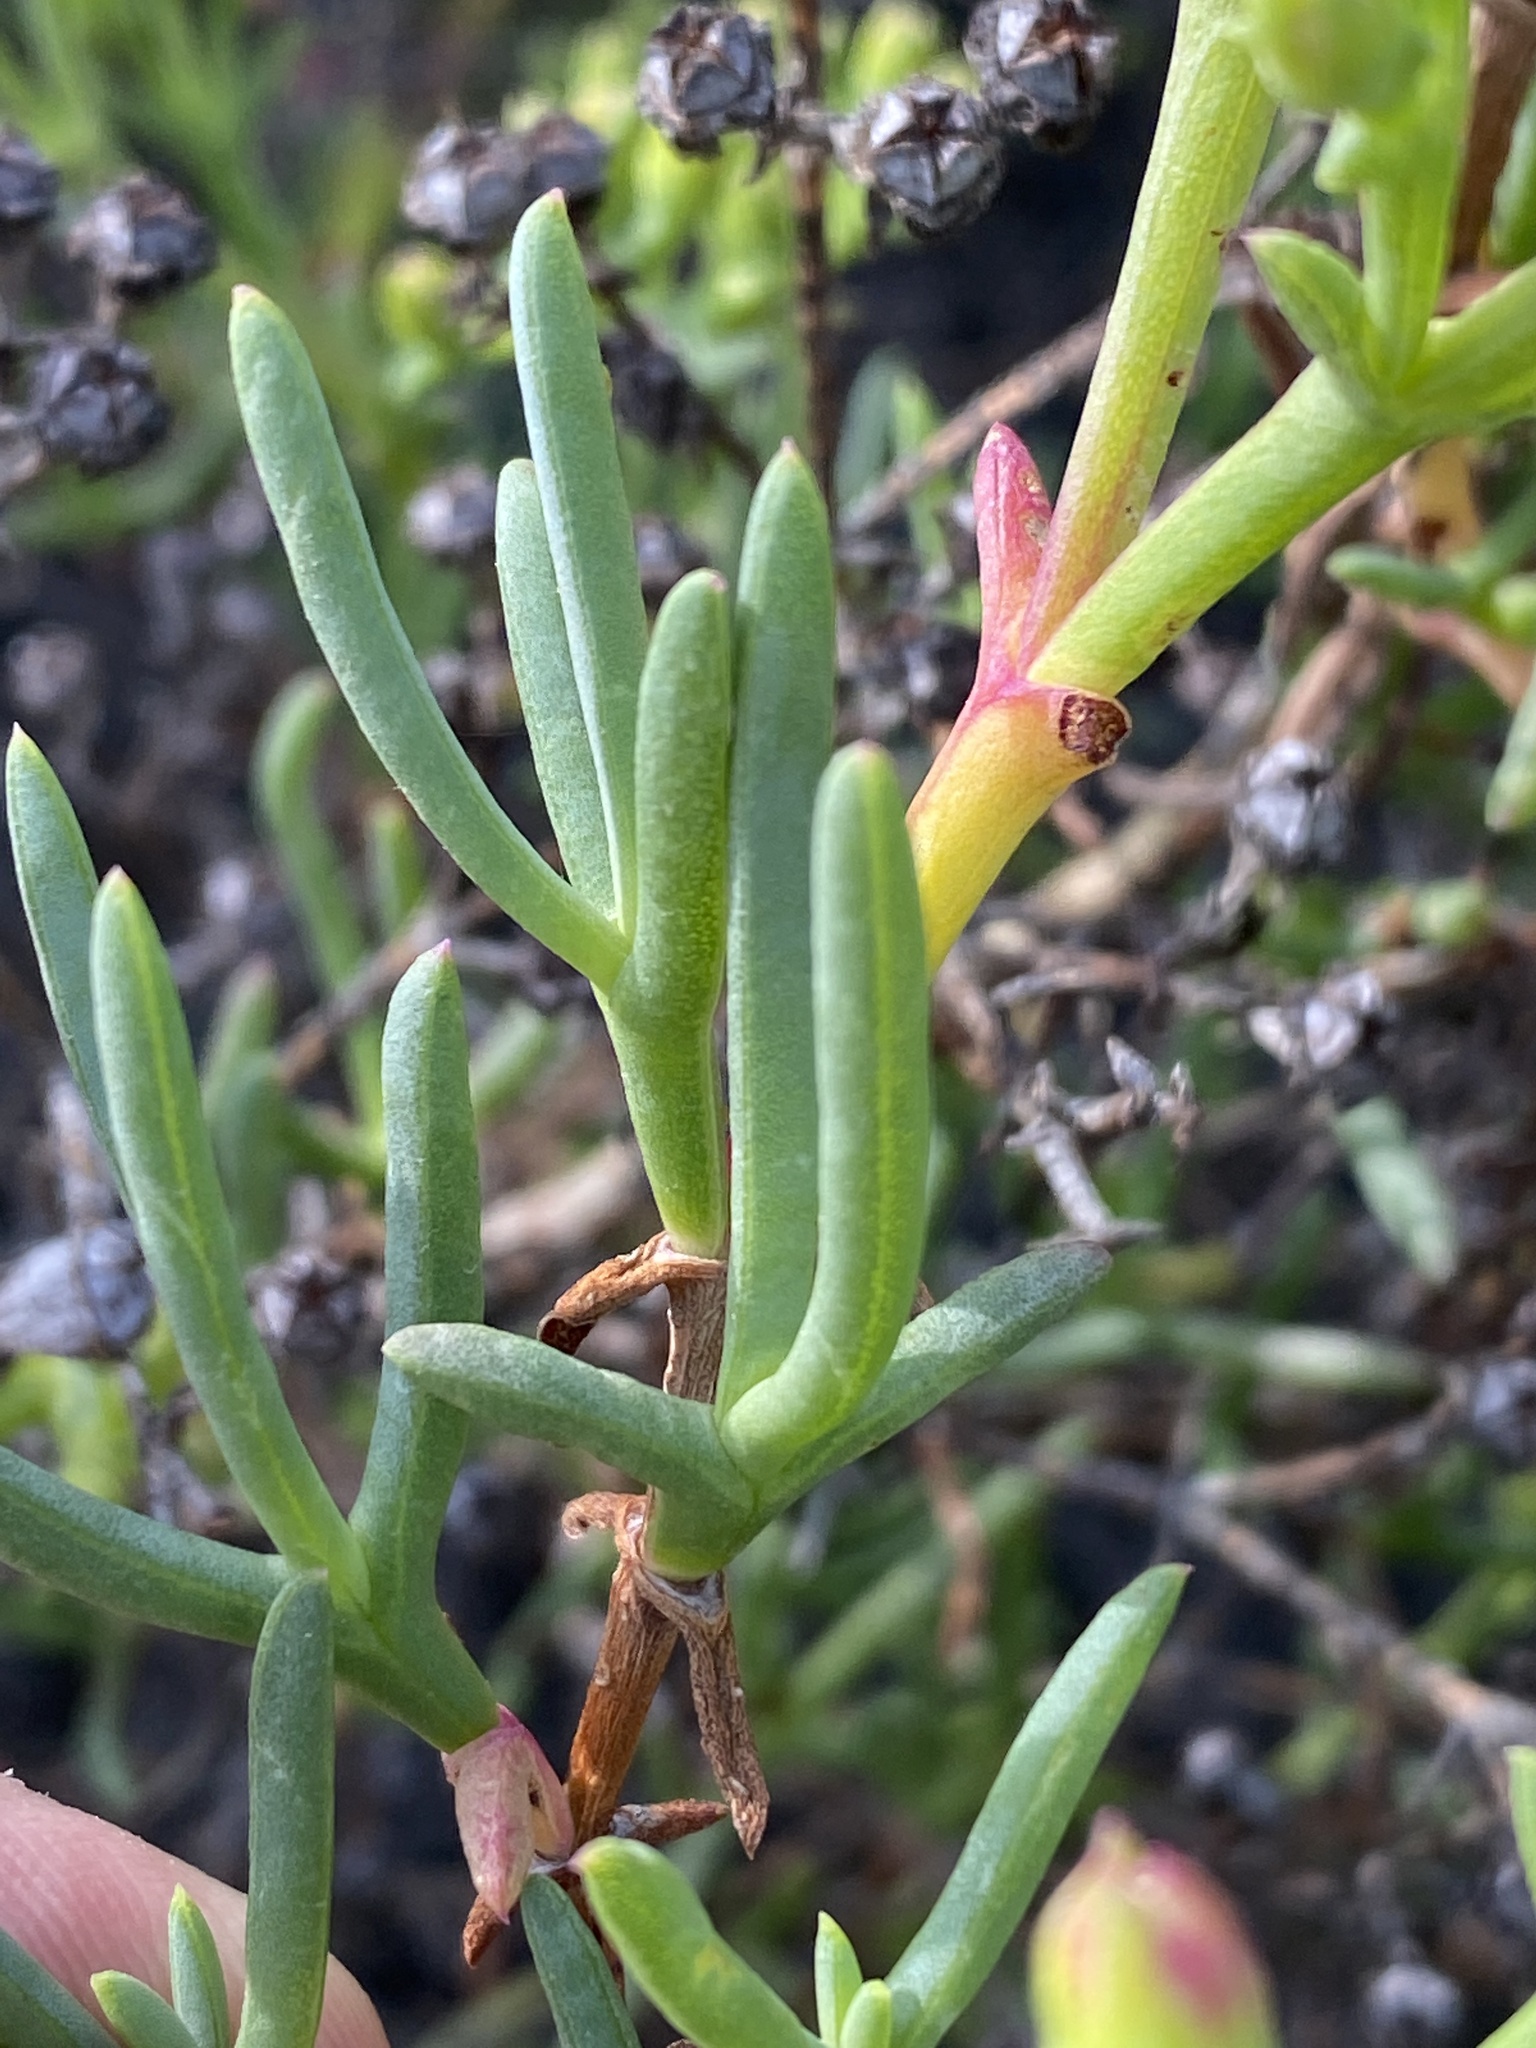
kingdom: Plantae
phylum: Tracheophyta
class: Magnoliopsida
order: Caryophyllales
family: Aizoaceae
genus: Ruschia
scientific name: Ruschia multiflora
